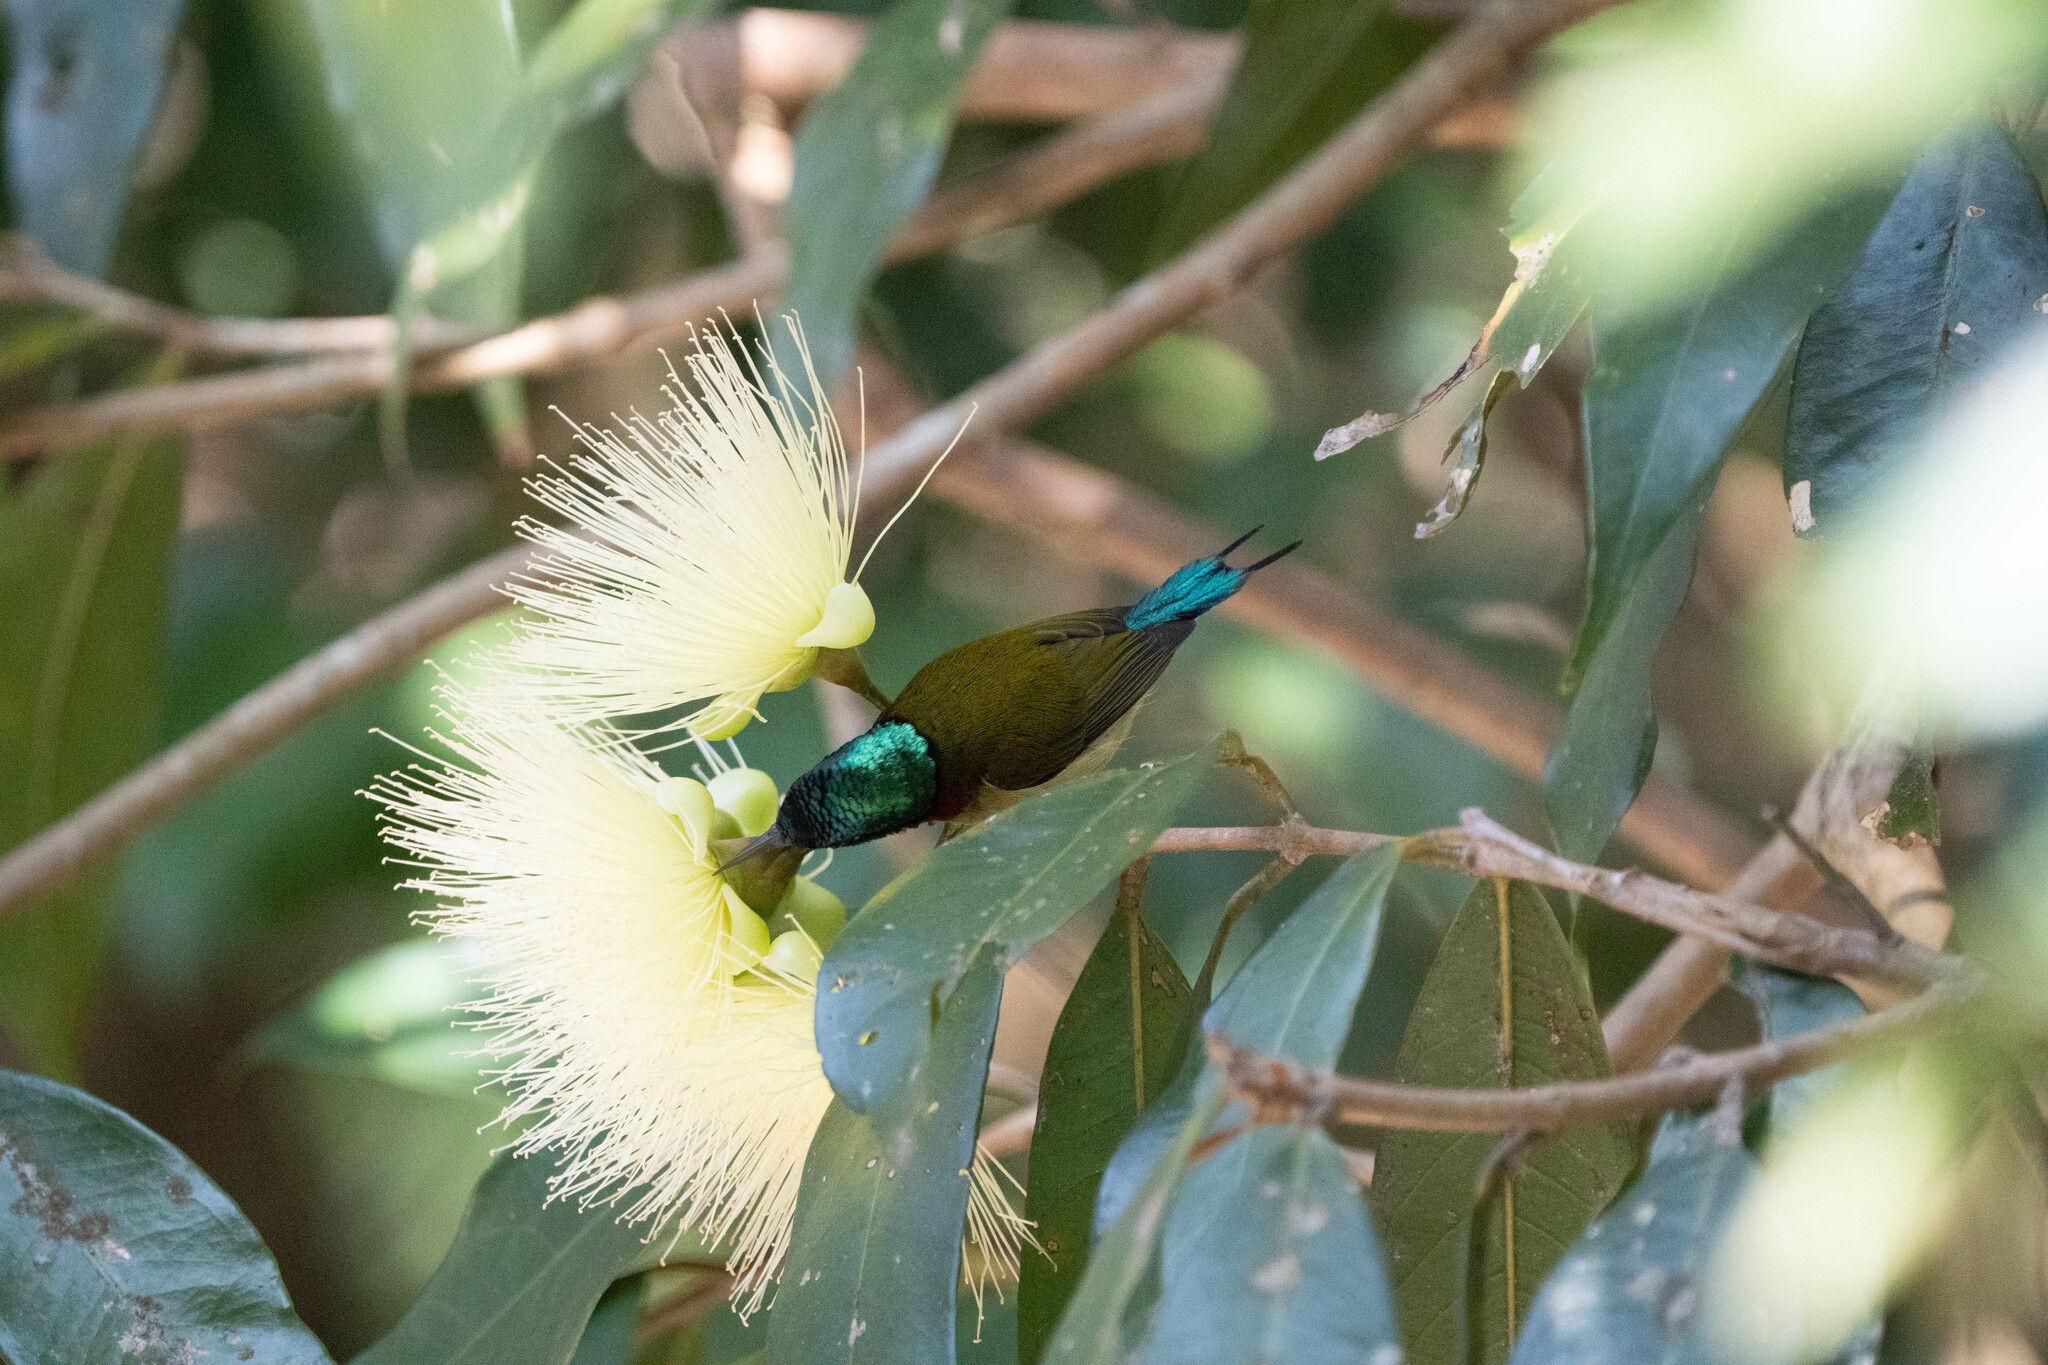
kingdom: Animalia
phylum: Chordata
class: Aves
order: Passeriformes
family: Nectariniidae
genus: Aethopyga
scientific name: Aethopyga christinae
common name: Fork-tailed sunbird
